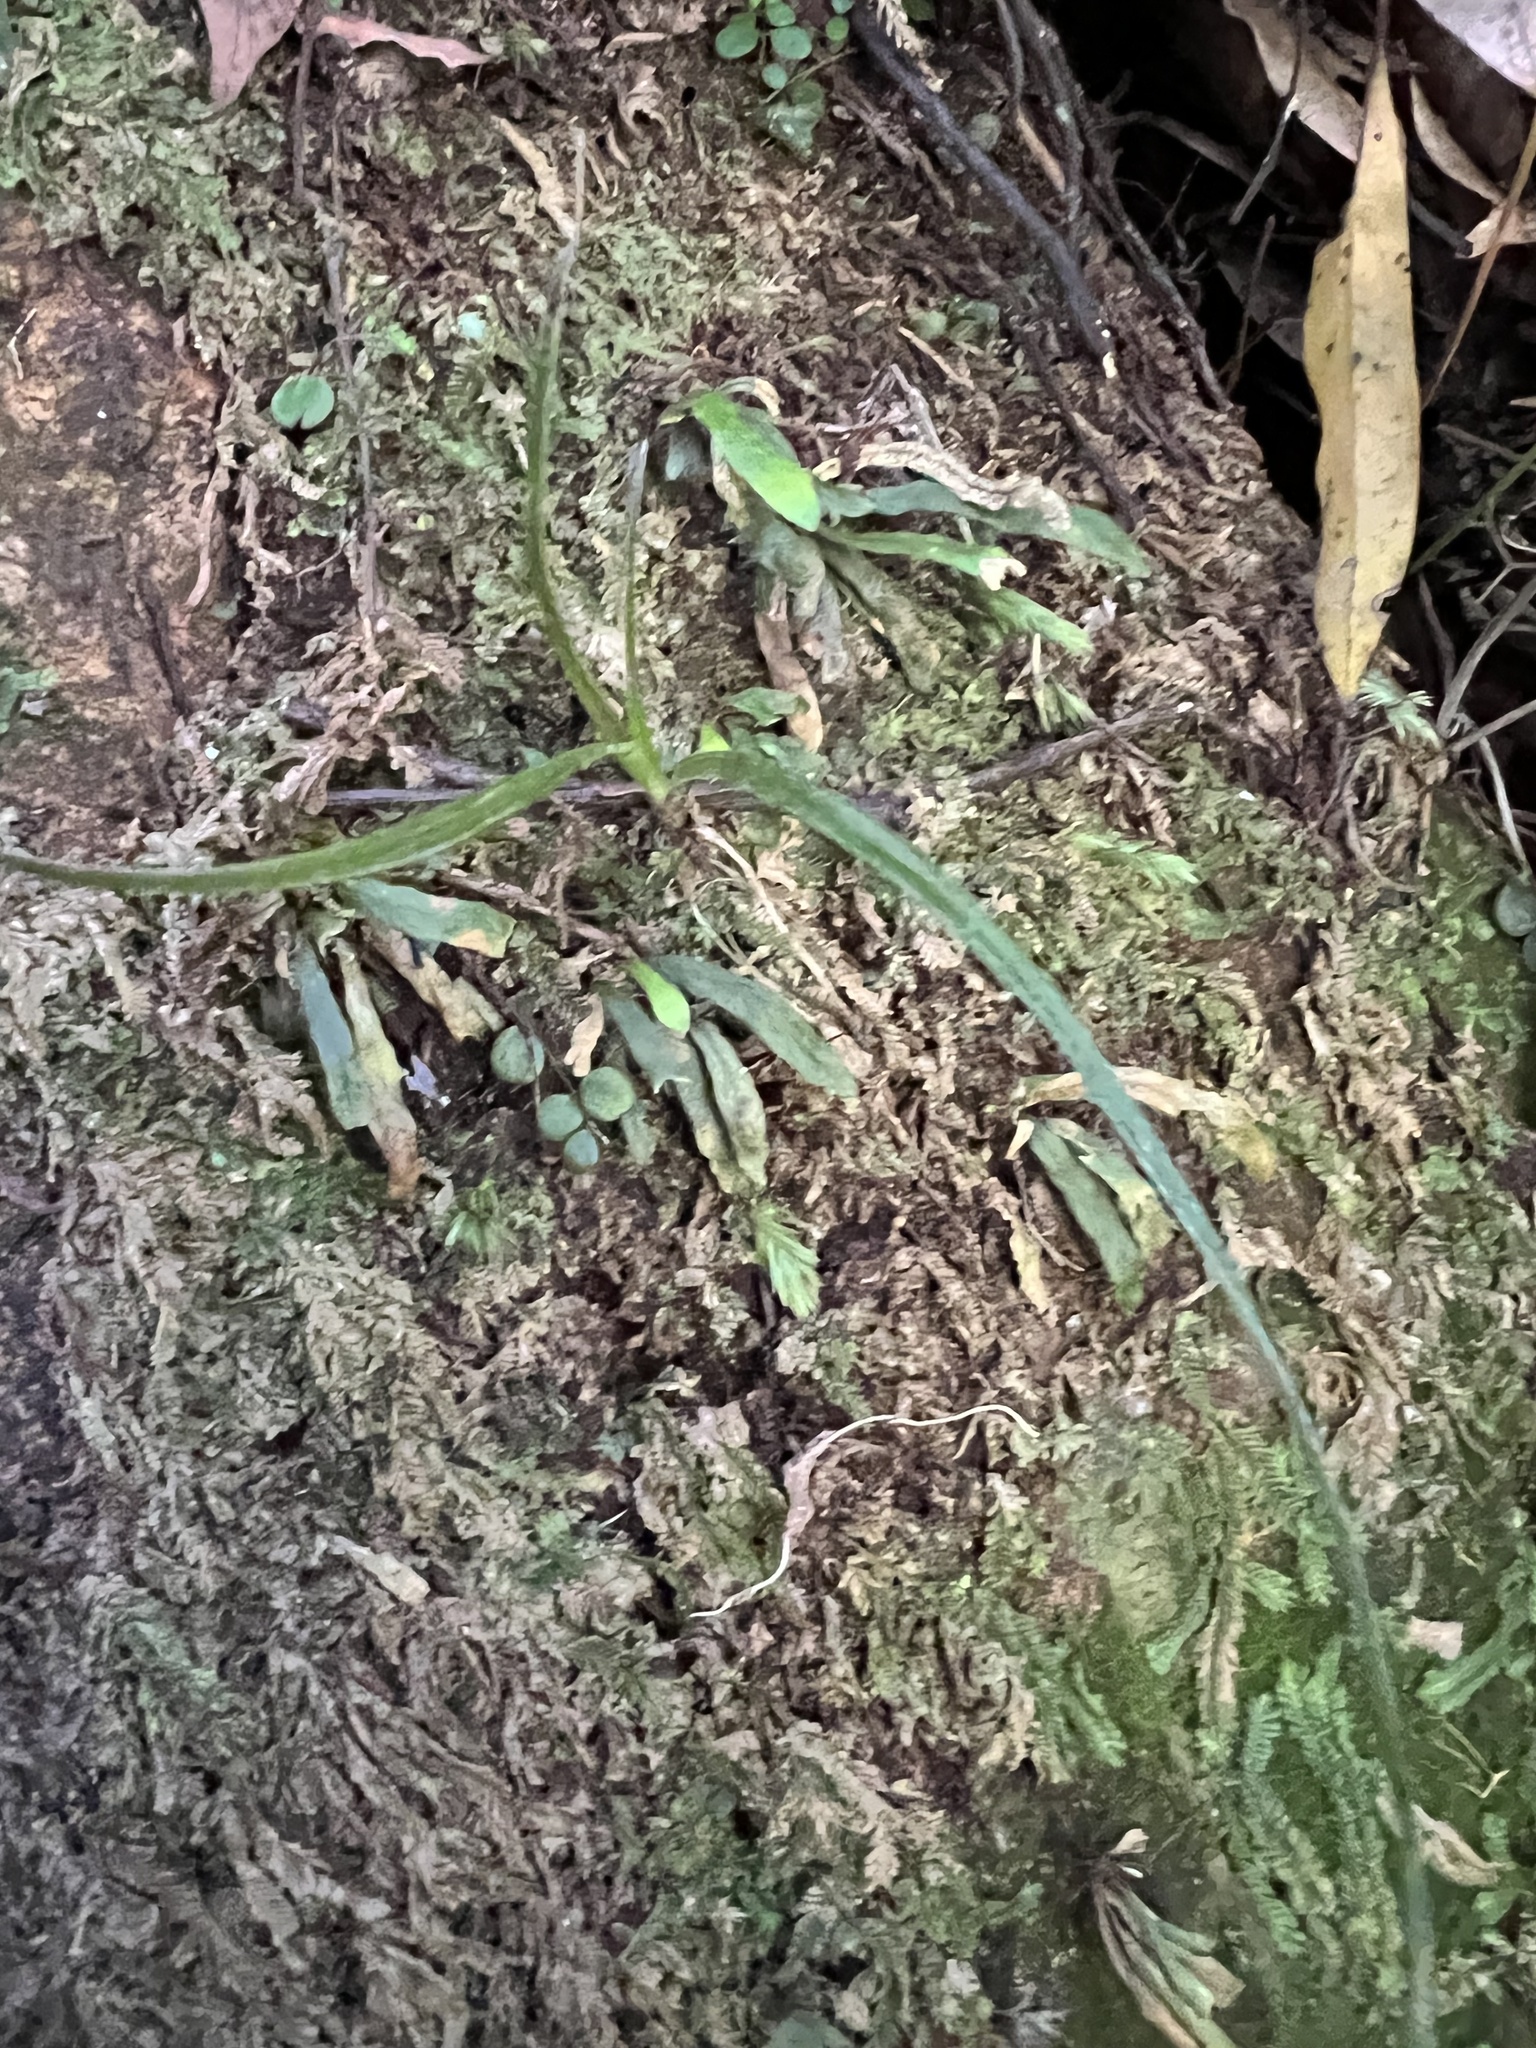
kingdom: Plantae
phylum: Tracheophyta
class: Polypodiopsida
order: Polypodiales
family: Polypodiaceae
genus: Notogrammitis
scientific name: Notogrammitis ciliata
